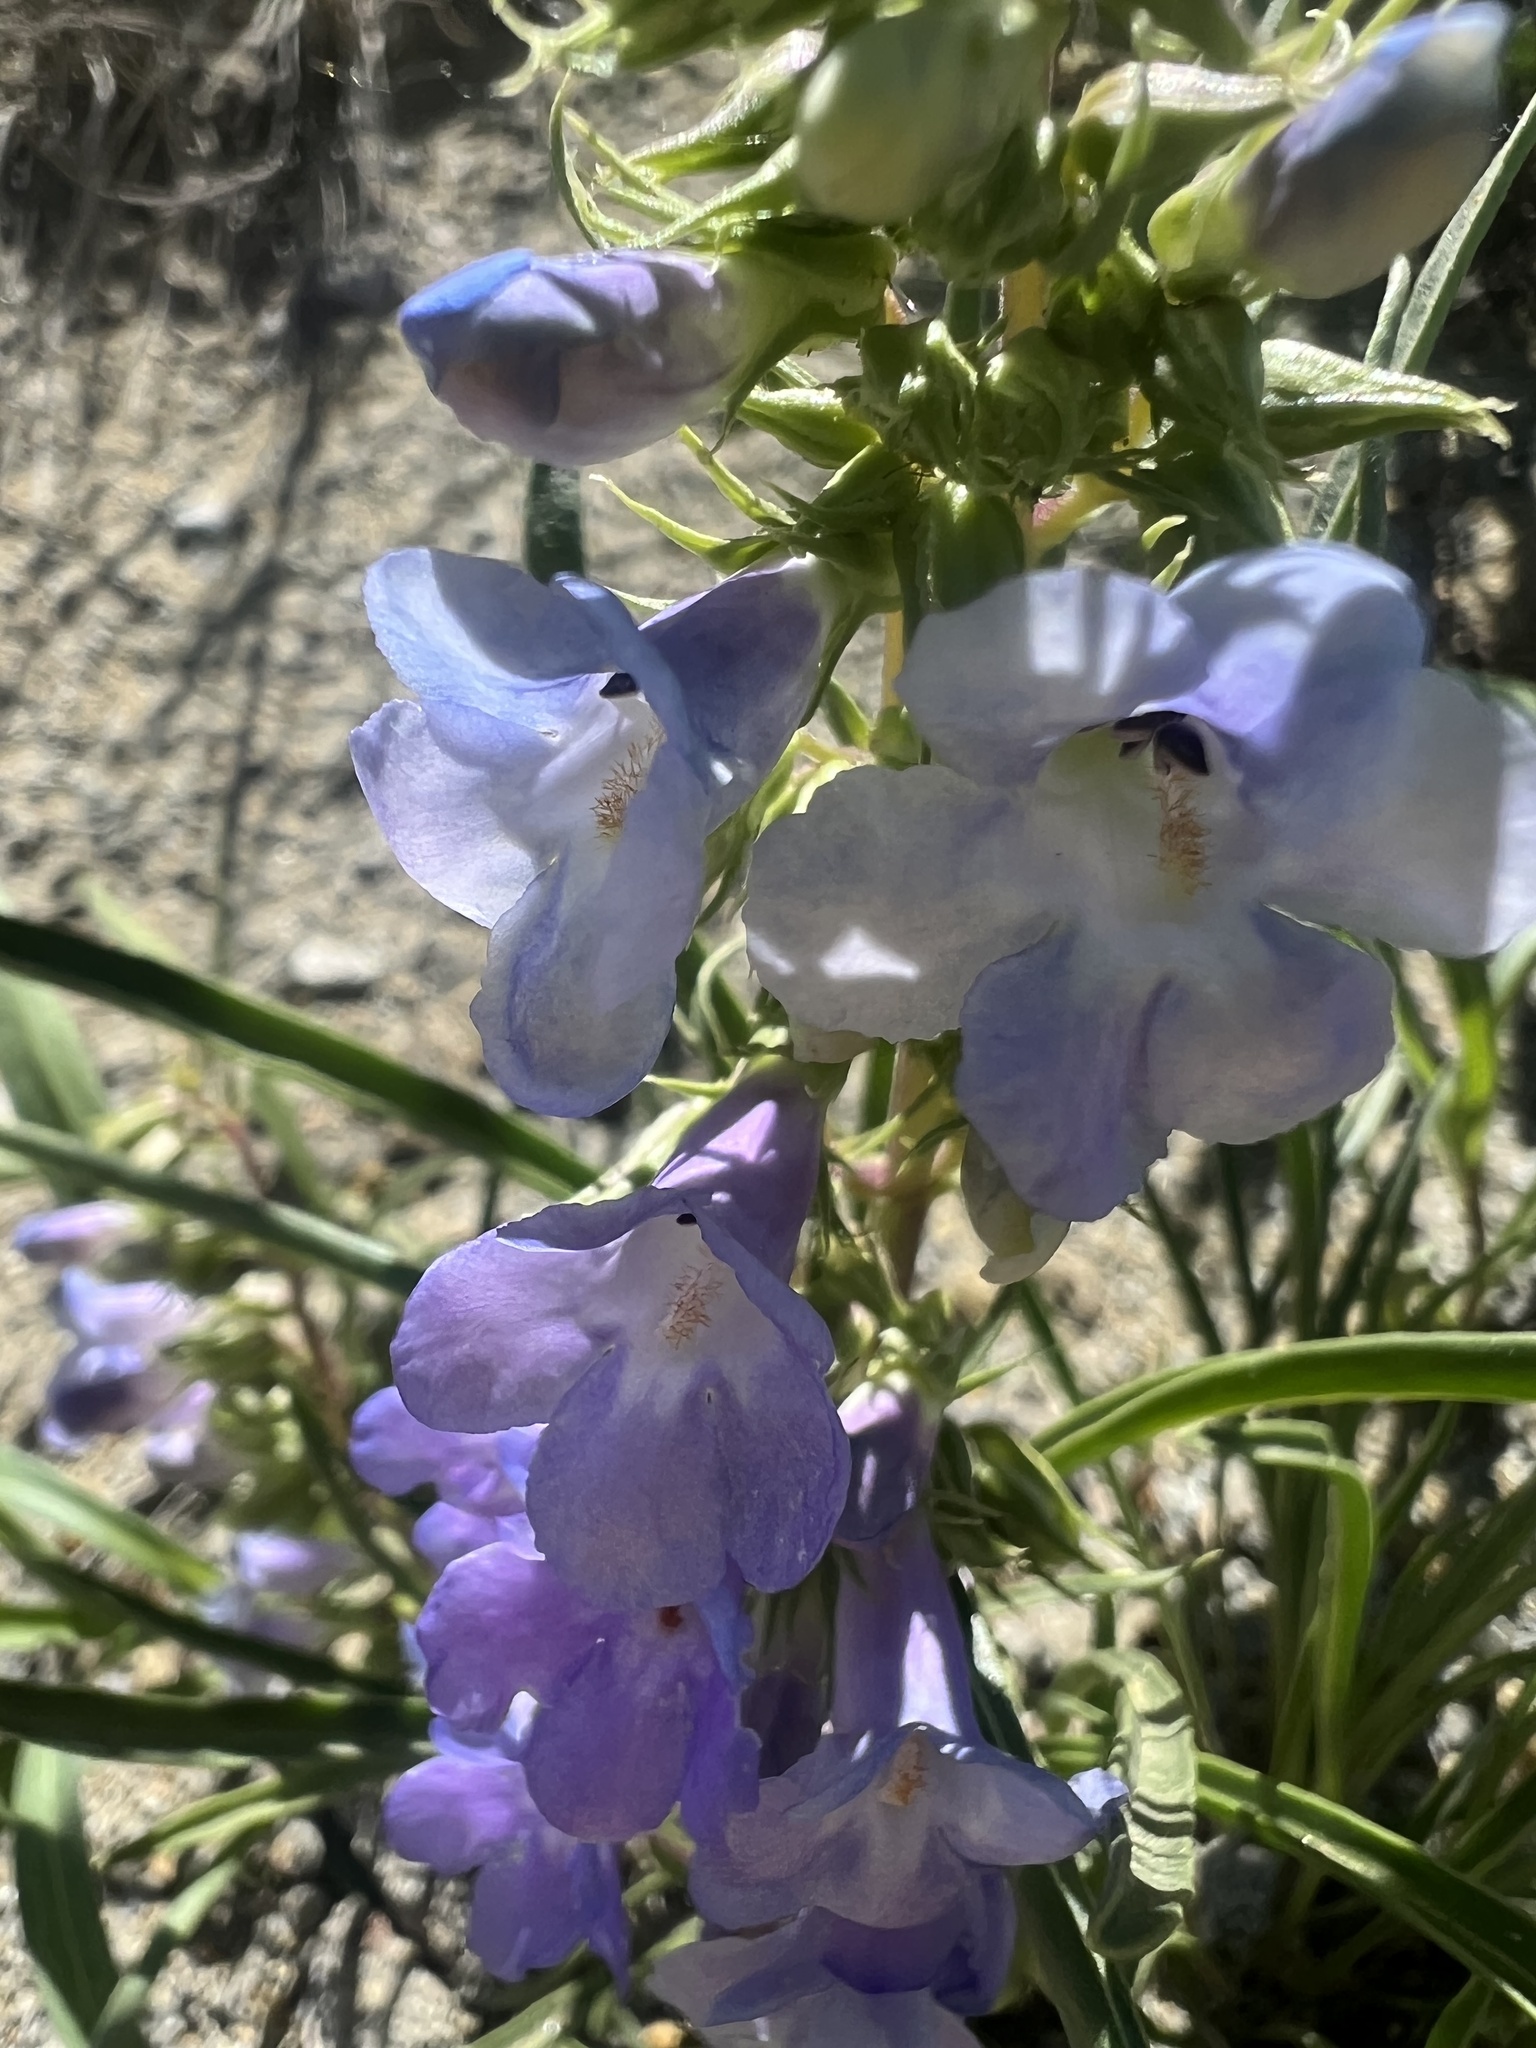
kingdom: Plantae
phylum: Tracheophyta
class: Magnoliopsida
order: Lamiales
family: Plantaginaceae
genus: Penstemon
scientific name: Penstemon penlandii
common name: Penland's beardtongue
